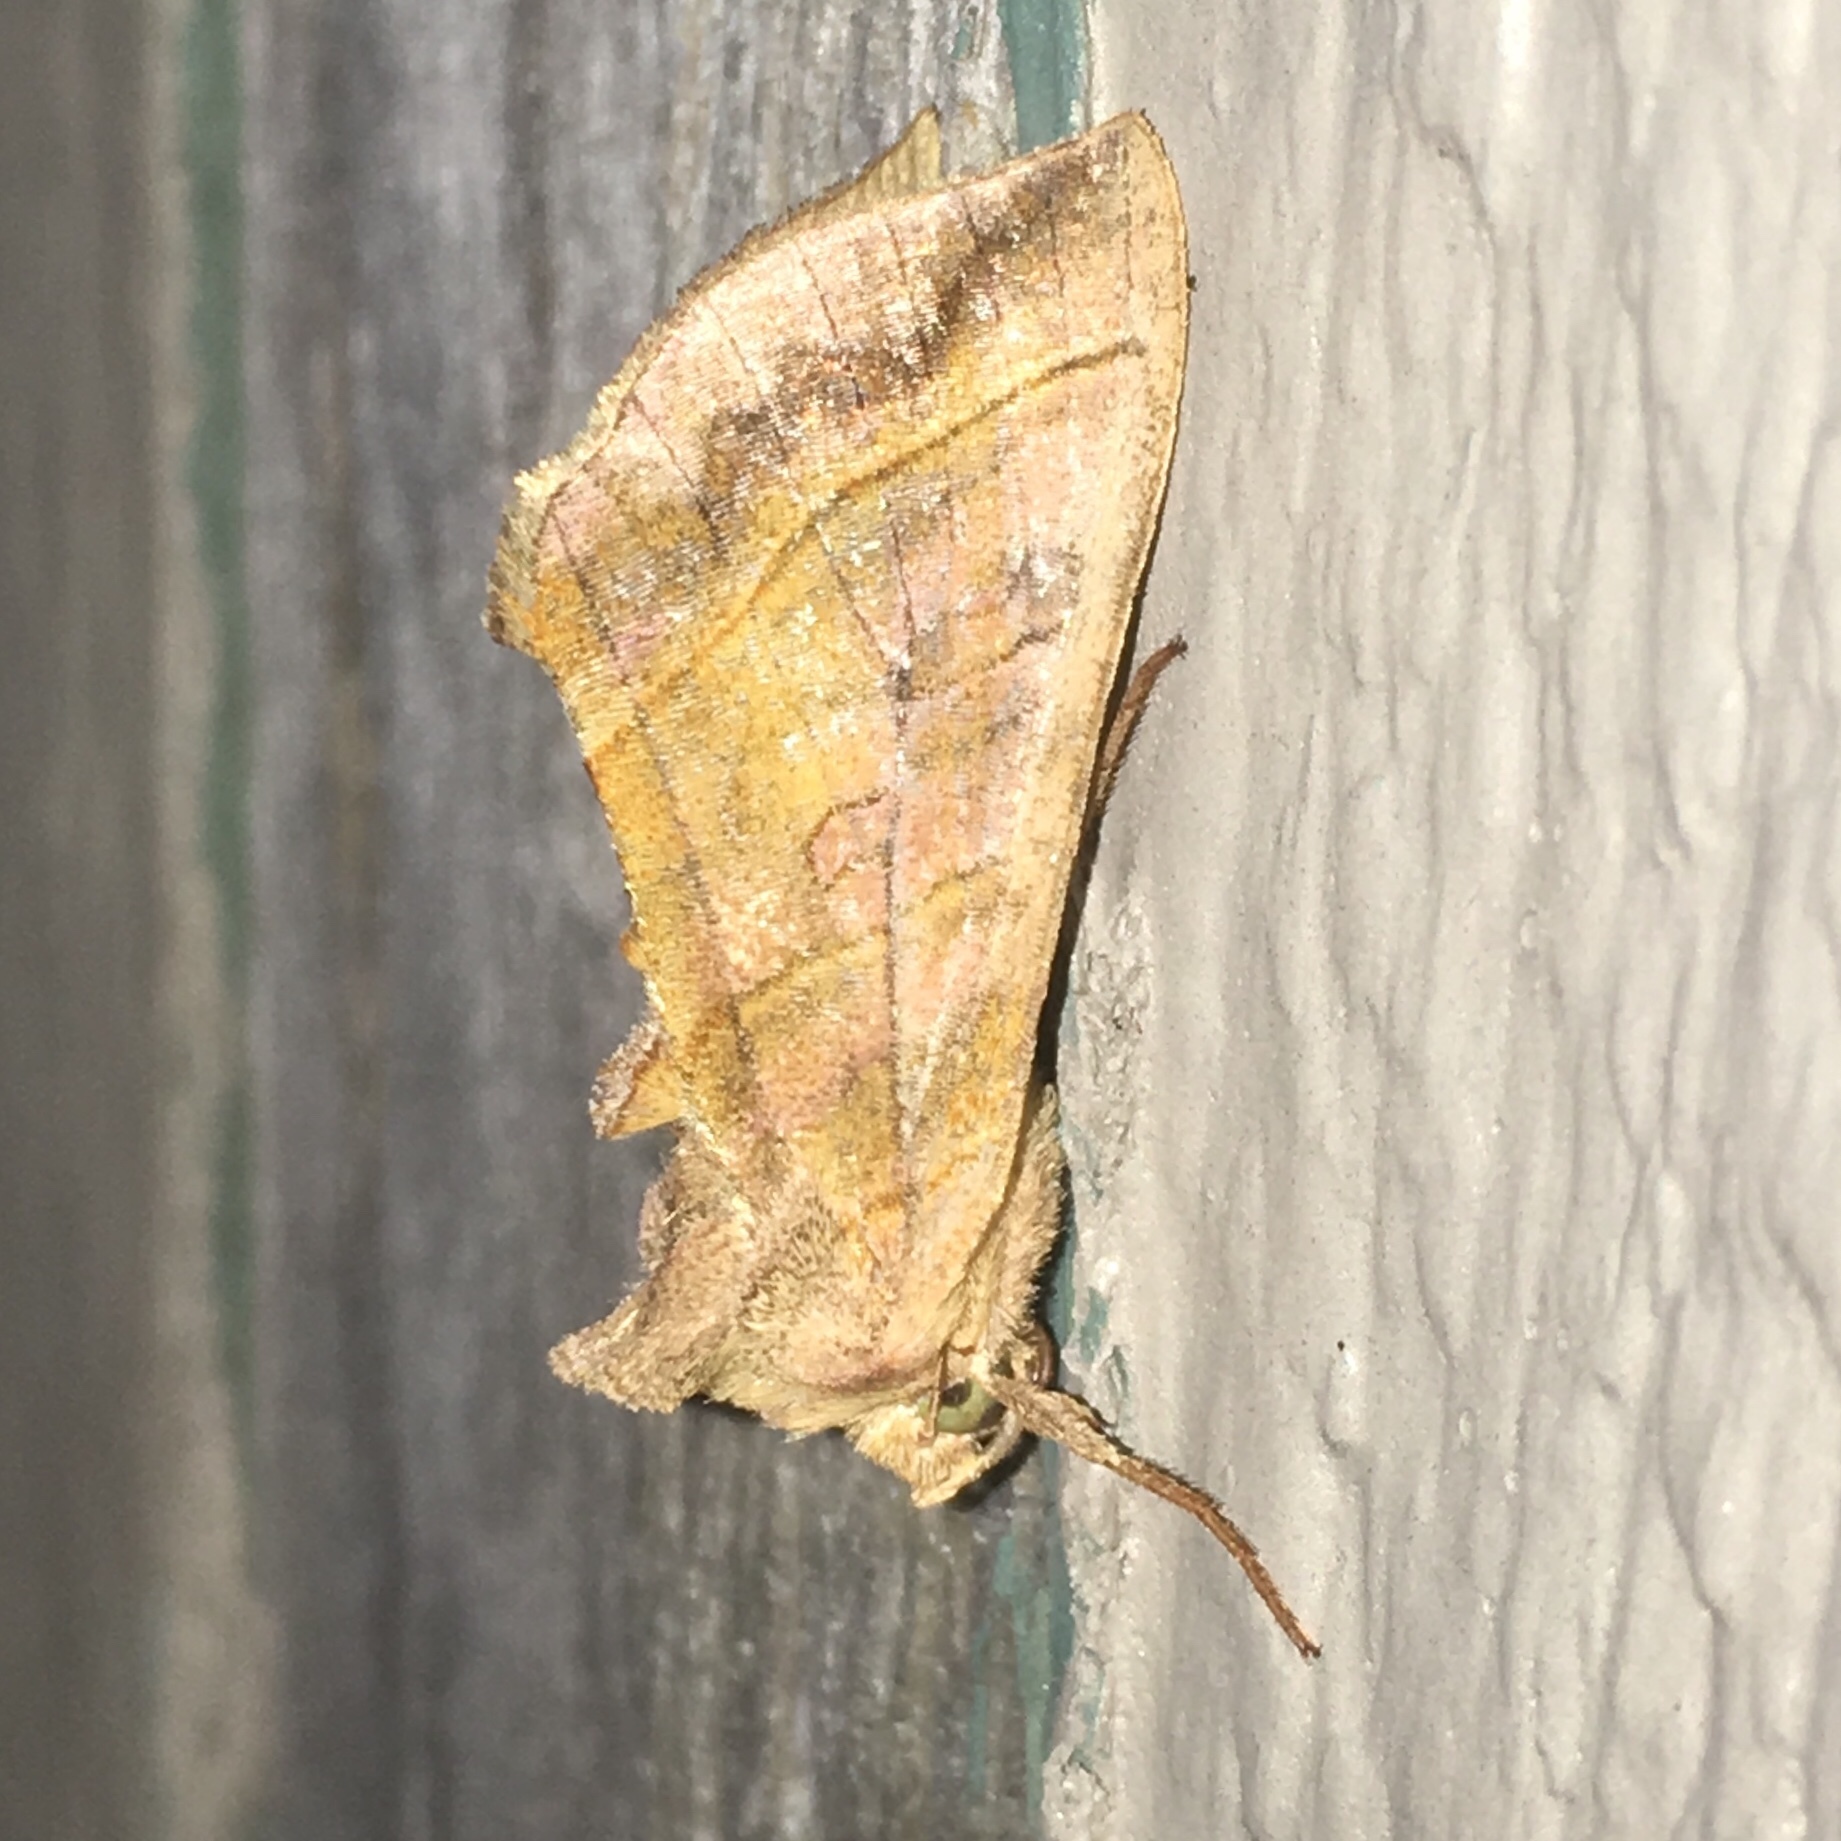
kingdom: Animalia
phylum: Arthropoda
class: Insecta
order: Lepidoptera
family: Noctuidae
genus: Diachrysia
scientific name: Diachrysia aereoides
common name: Dark-spotted looper moth
